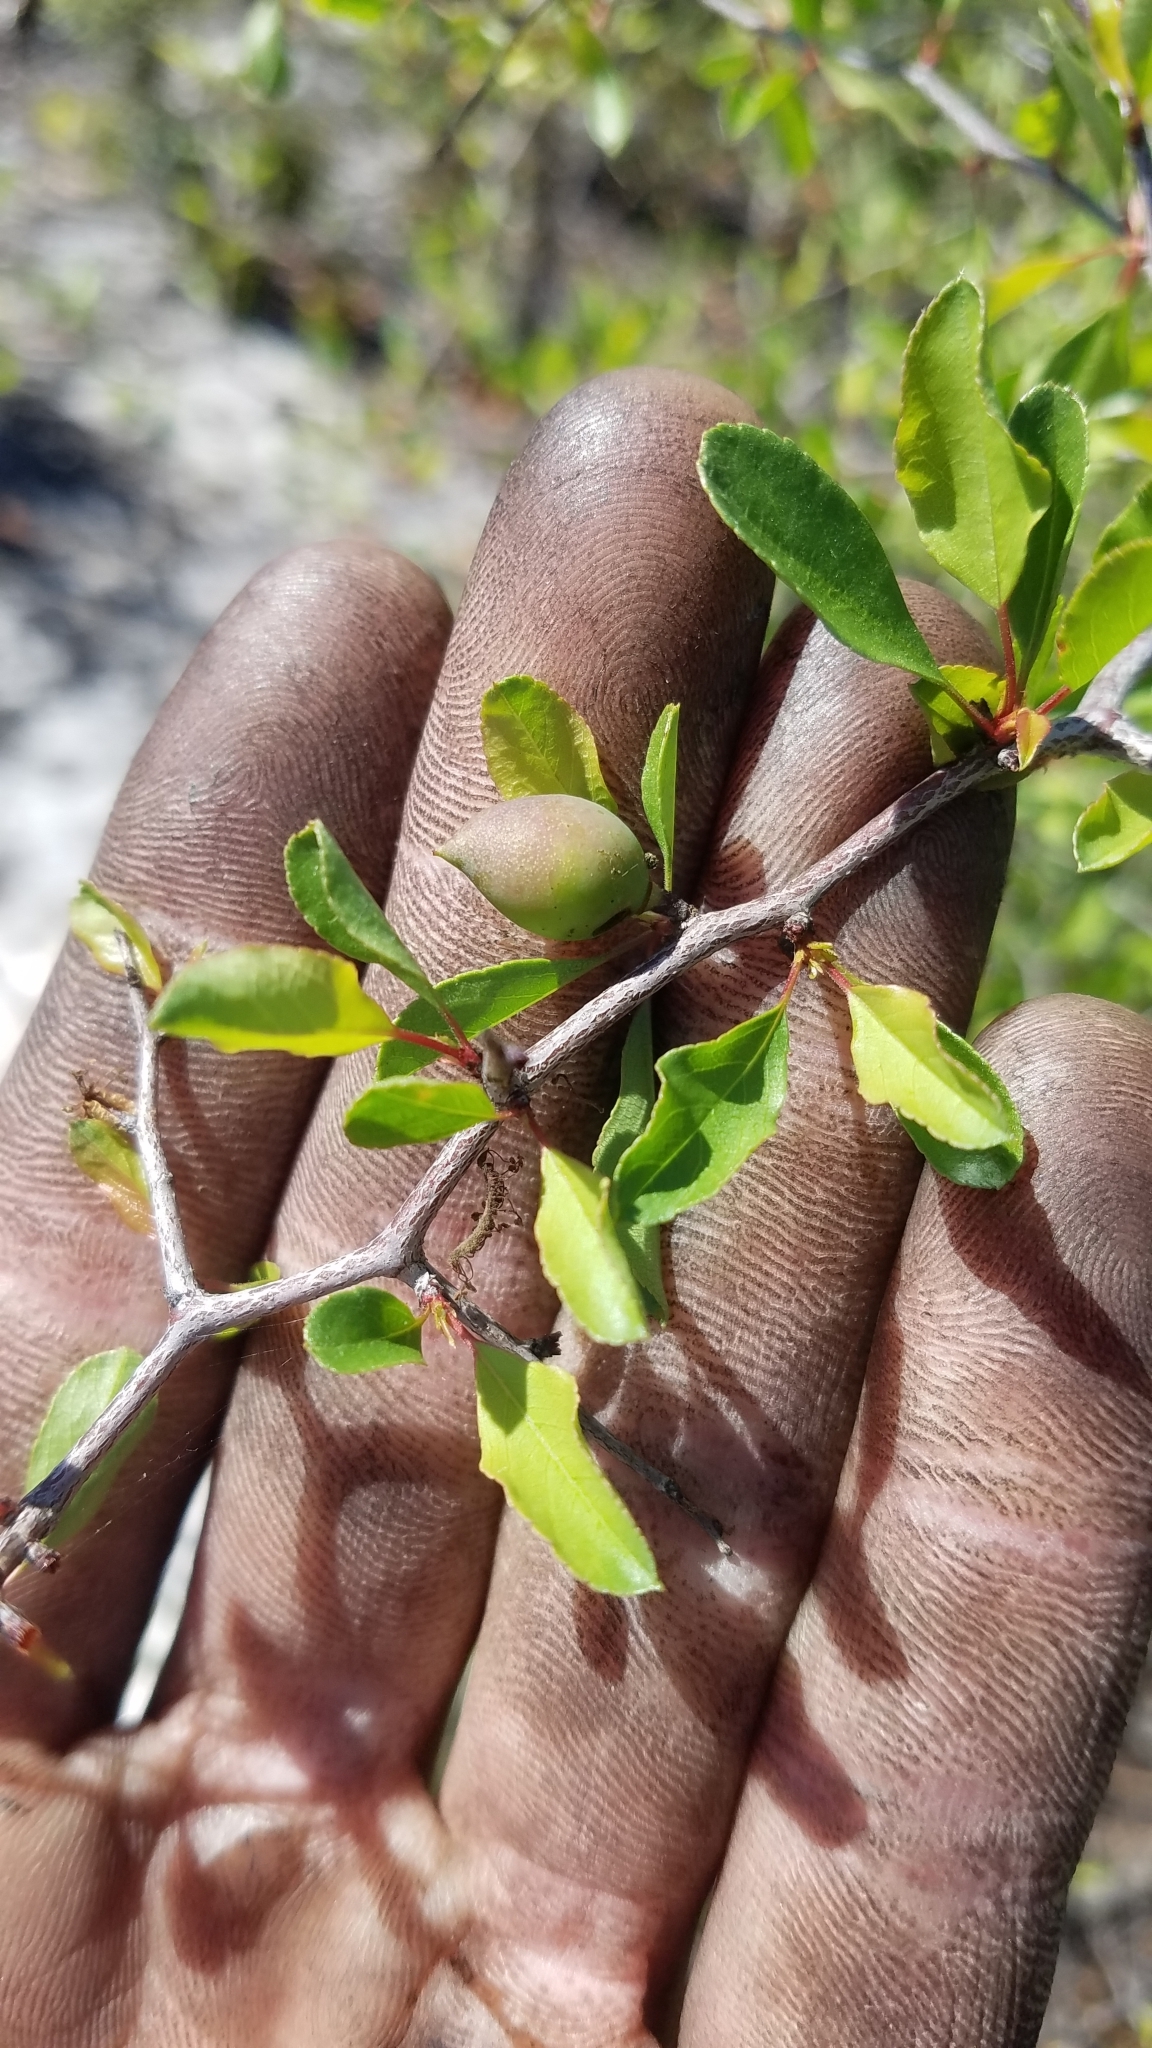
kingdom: Plantae
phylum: Tracheophyta
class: Magnoliopsida
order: Rosales
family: Rosaceae
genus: Prunus
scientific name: Prunus geniculata
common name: Scrub plum
